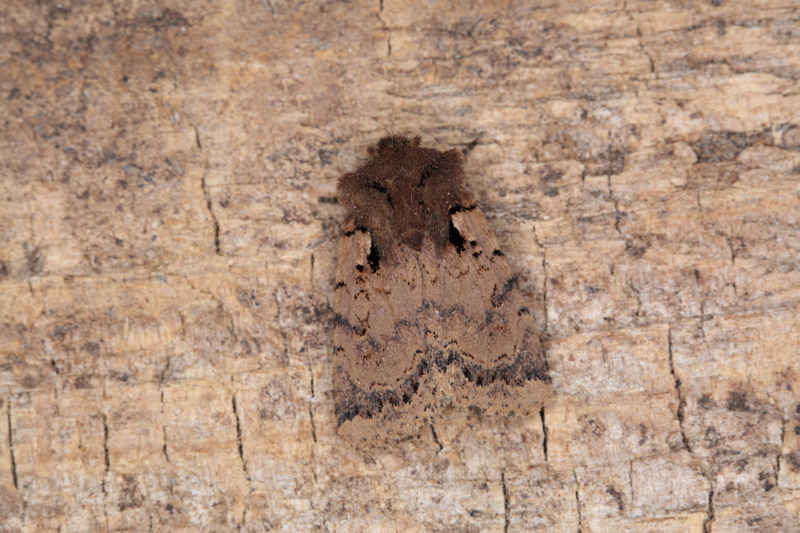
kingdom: Animalia
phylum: Arthropoda
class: Insecta
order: Lepidoptera
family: Noctuidae
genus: Austramathes
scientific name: Austramathes squaliolus
